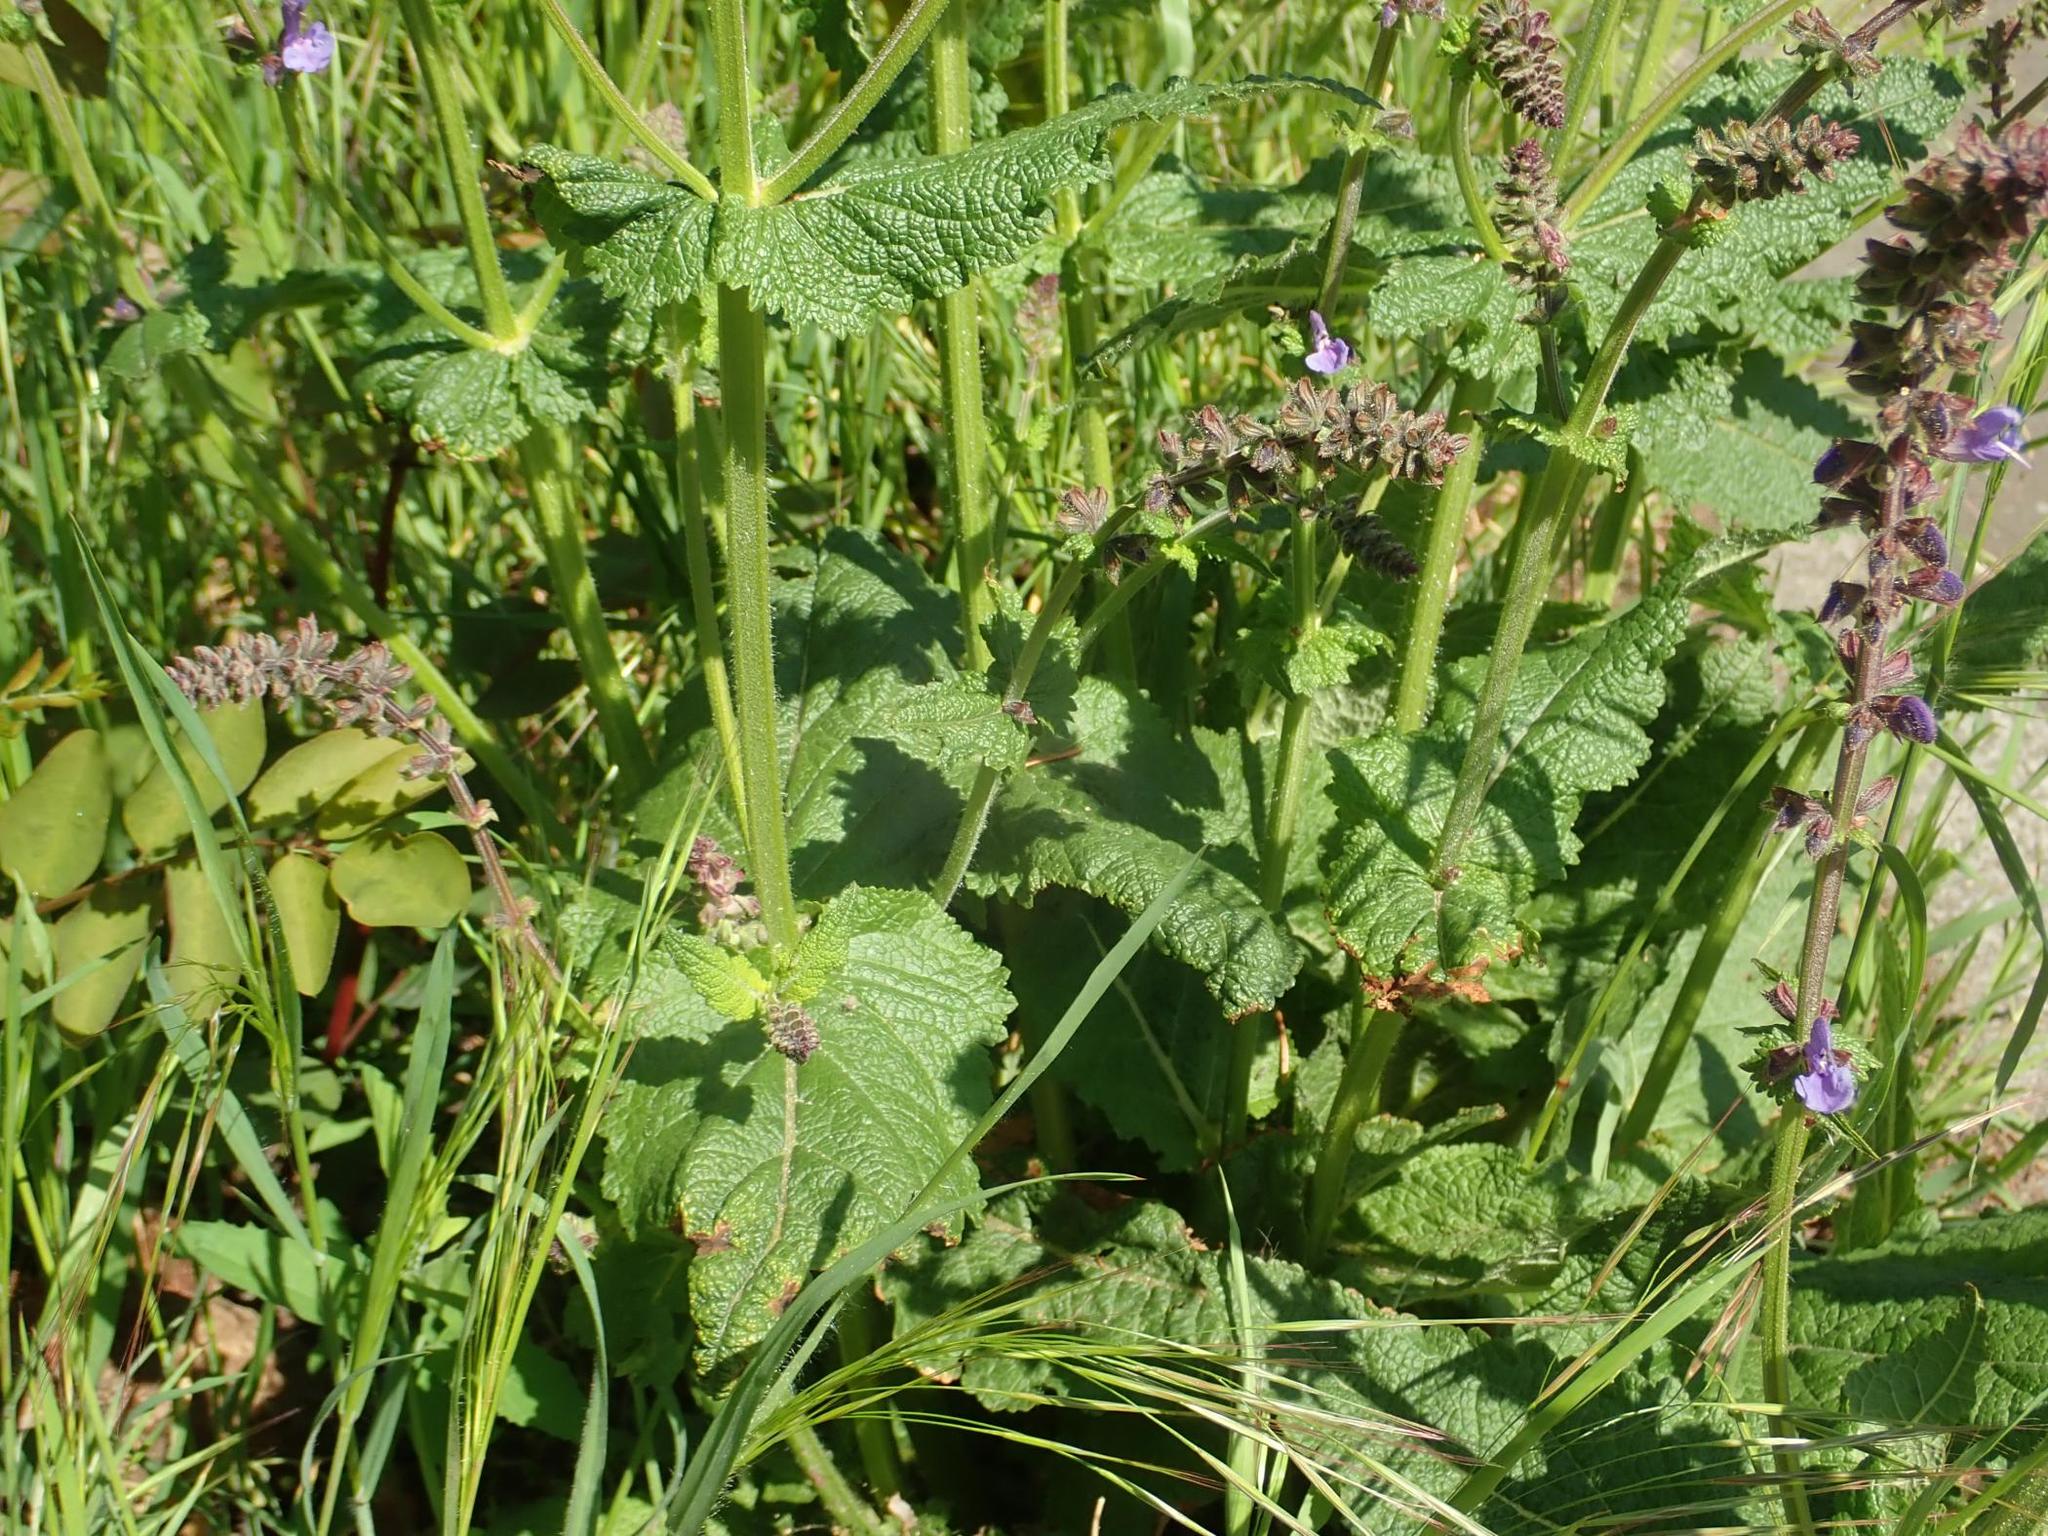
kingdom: Plantae
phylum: Tracheophyta
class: Magnoliopsida
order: Lamiales
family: Lamiaceae
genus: Salvia
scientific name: Salvia pratensis
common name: Meadow sage
